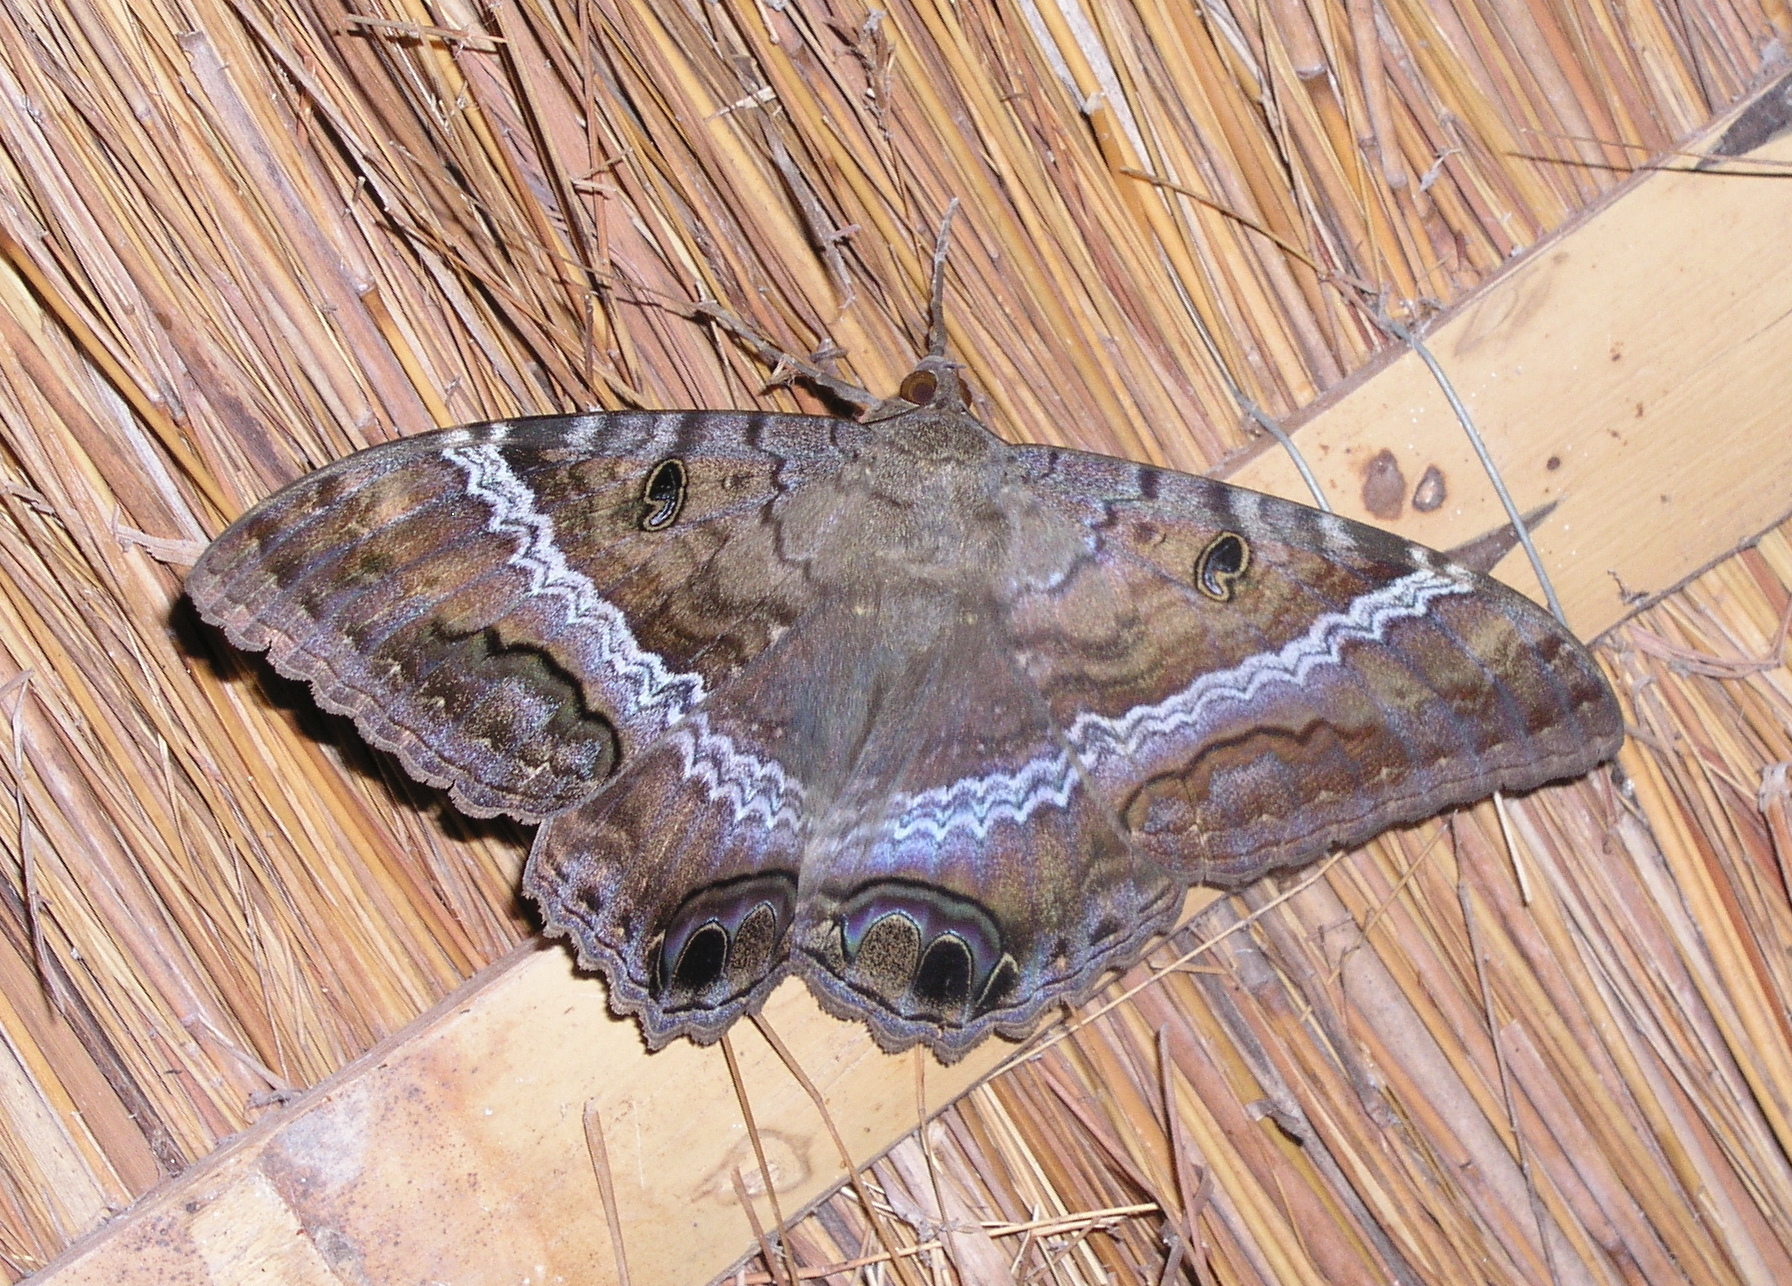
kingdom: Animalia
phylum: Arthropoda
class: Insecta
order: Lepidoptera
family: Erebidae
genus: Ascalapha
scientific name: Ascalapha odorata
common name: Black witch
